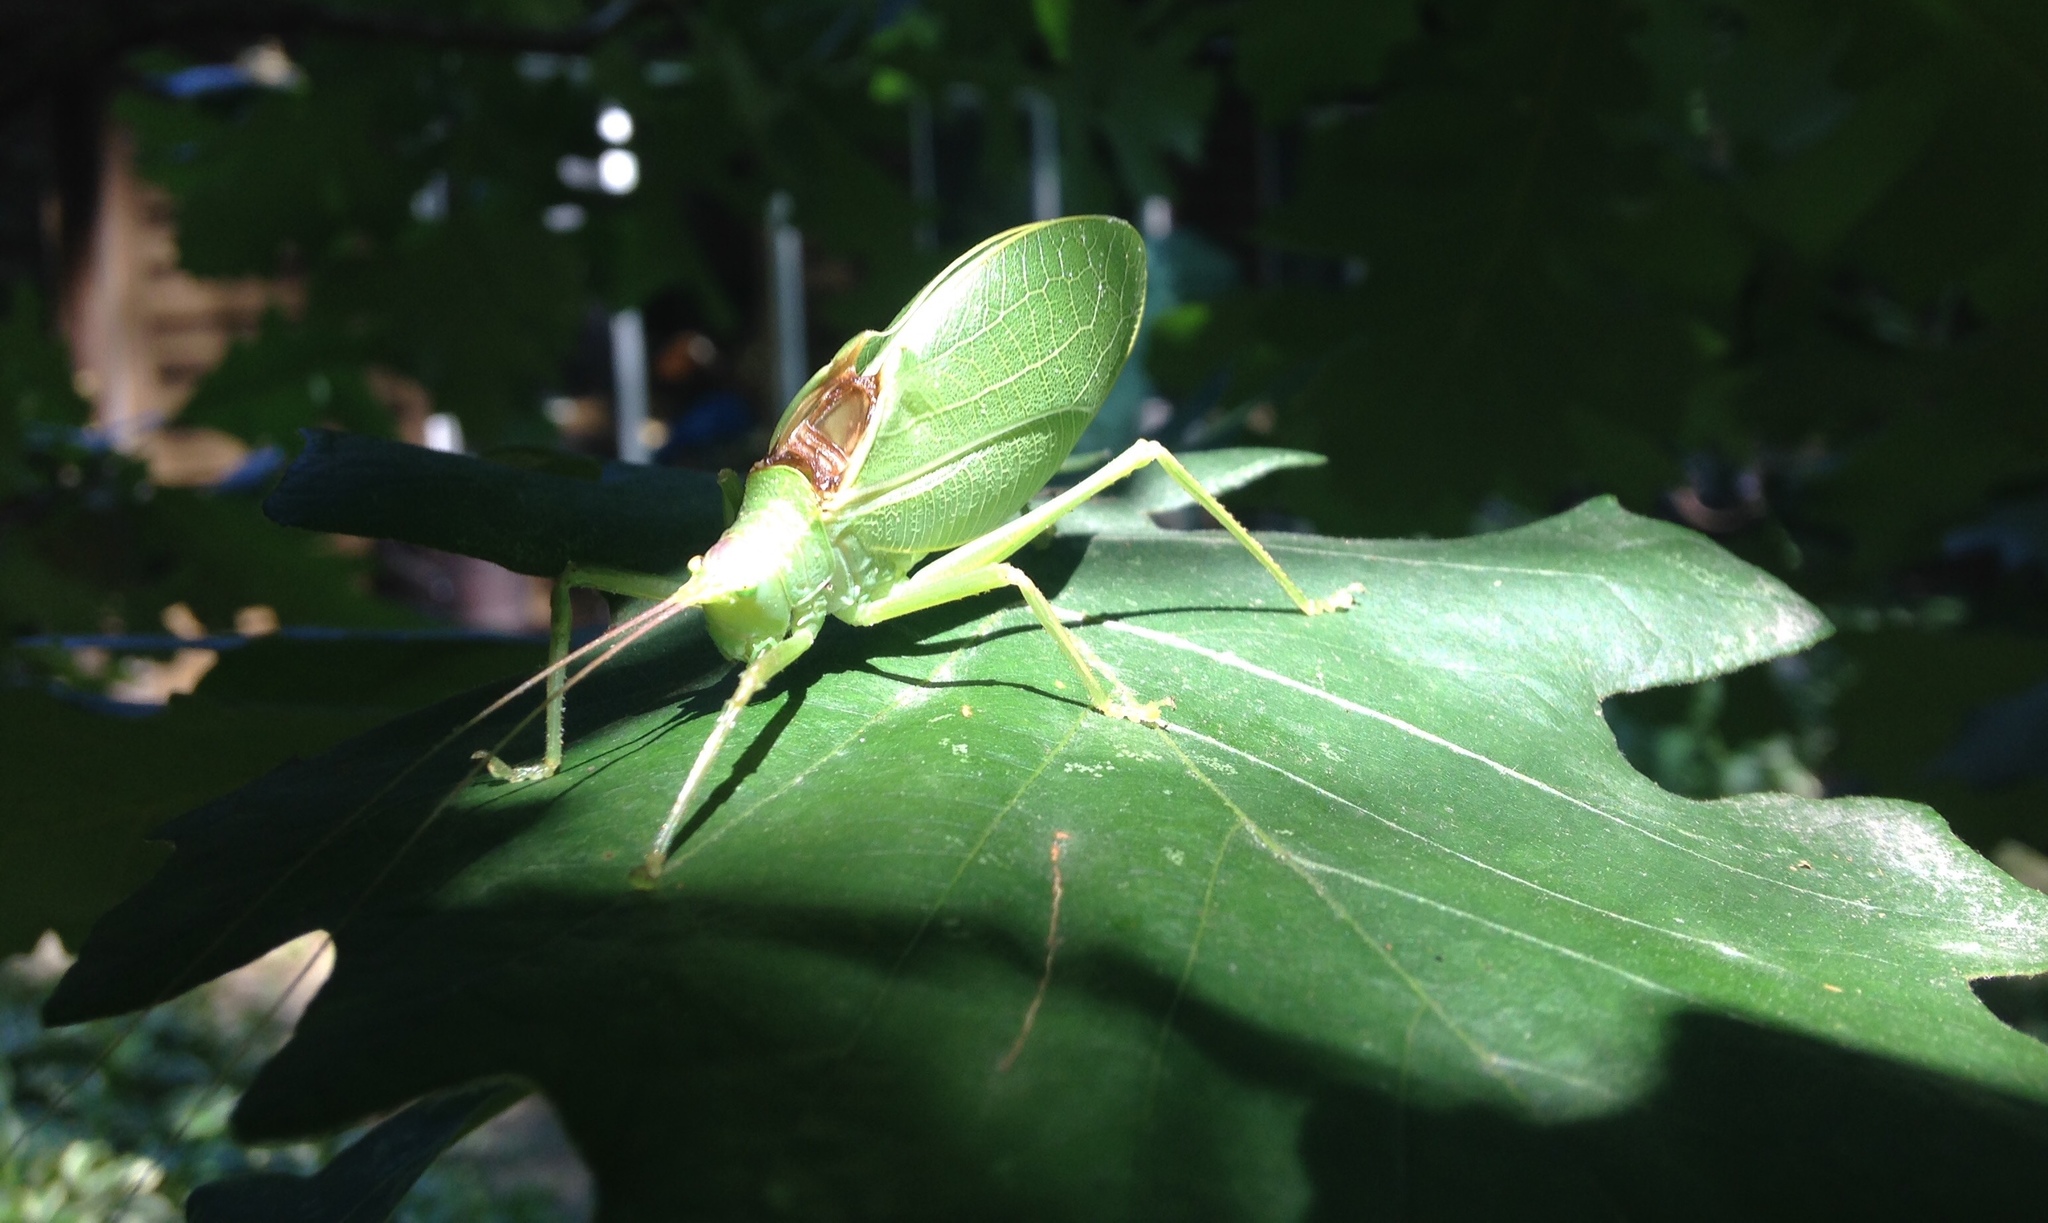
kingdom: Animalia
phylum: Arthropoda
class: Insecta
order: Orthoptera
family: Tettigoniidae
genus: Pterophylla
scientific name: Pterophylla camellifolia
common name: Common true katydid
